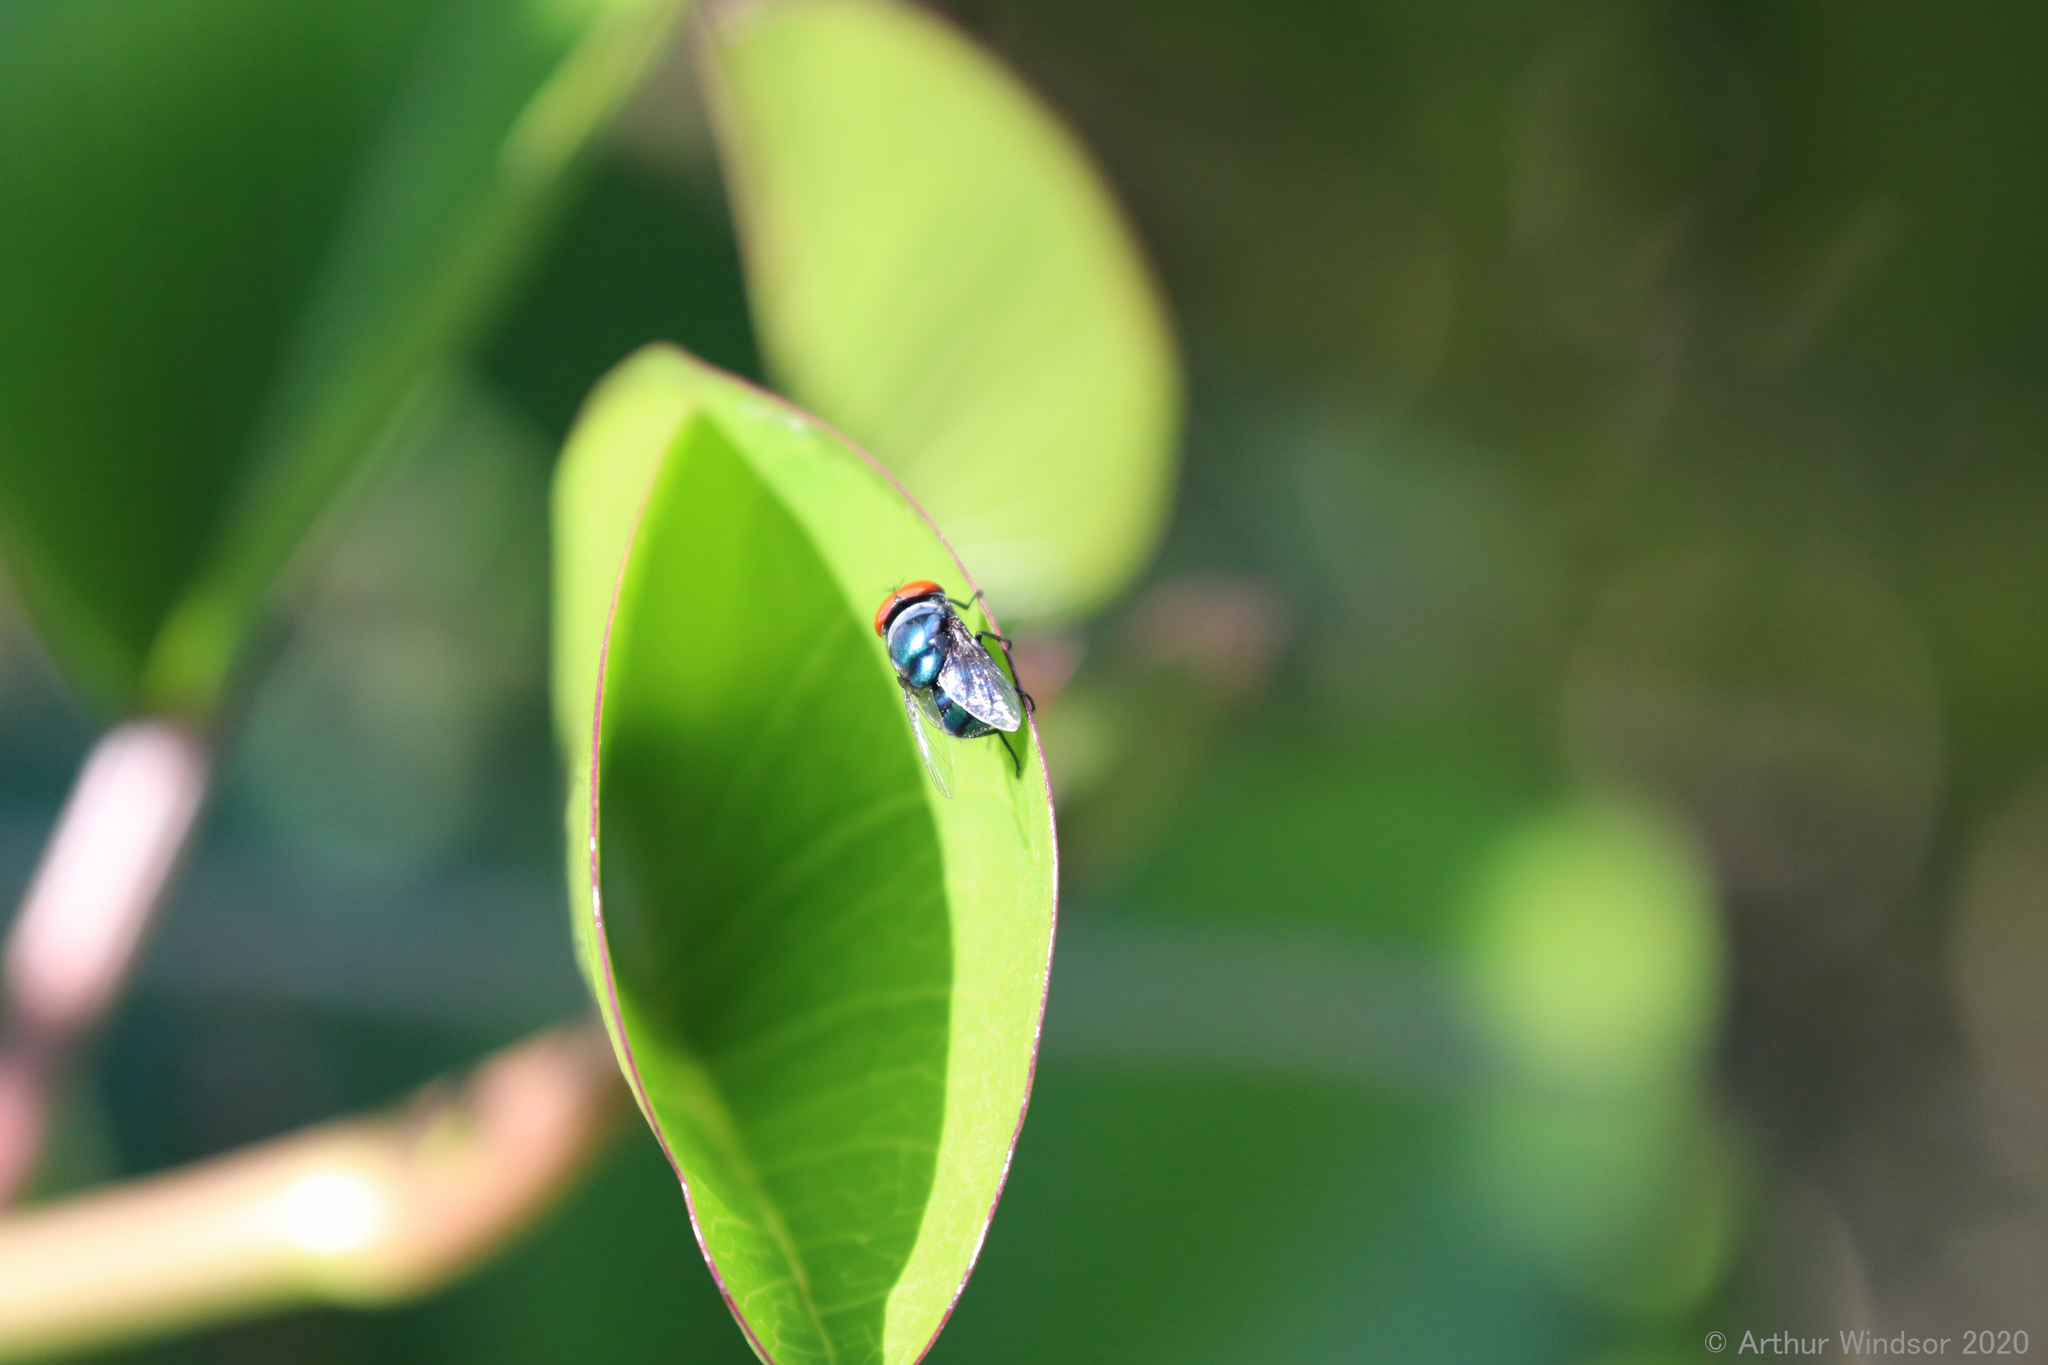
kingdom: Animalia
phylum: Arthropoda
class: Insecta
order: Diptera
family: Calliphoridae
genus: Chrysomya
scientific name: Chrysomya megacephala
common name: Blow fly
